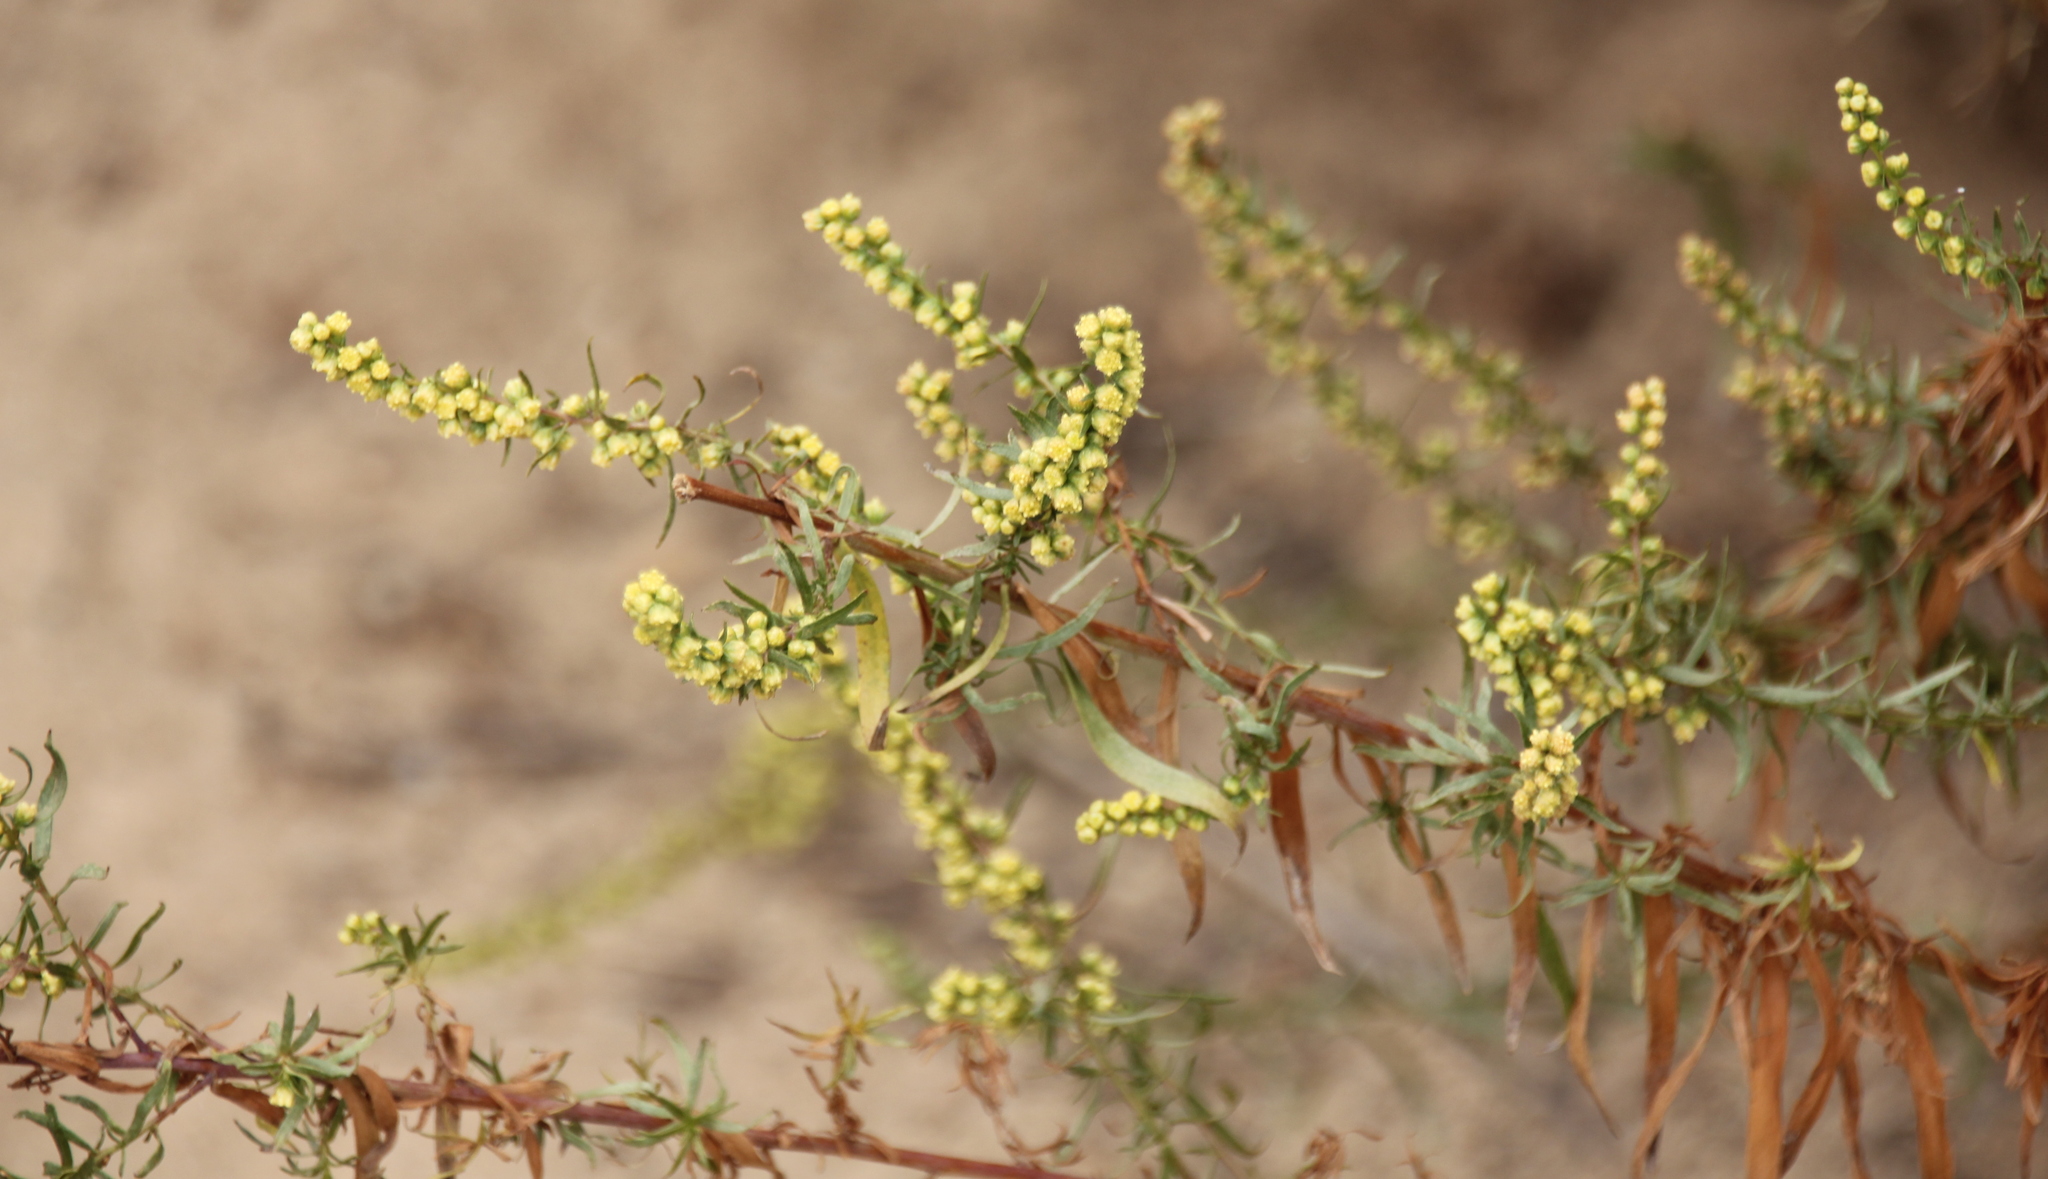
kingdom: Plantae
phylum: Tracheophyta
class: Magnoliopsida
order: Asterales
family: Asteraceae
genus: Artemisia
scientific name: Artemisia dracunculus
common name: Tarragon
